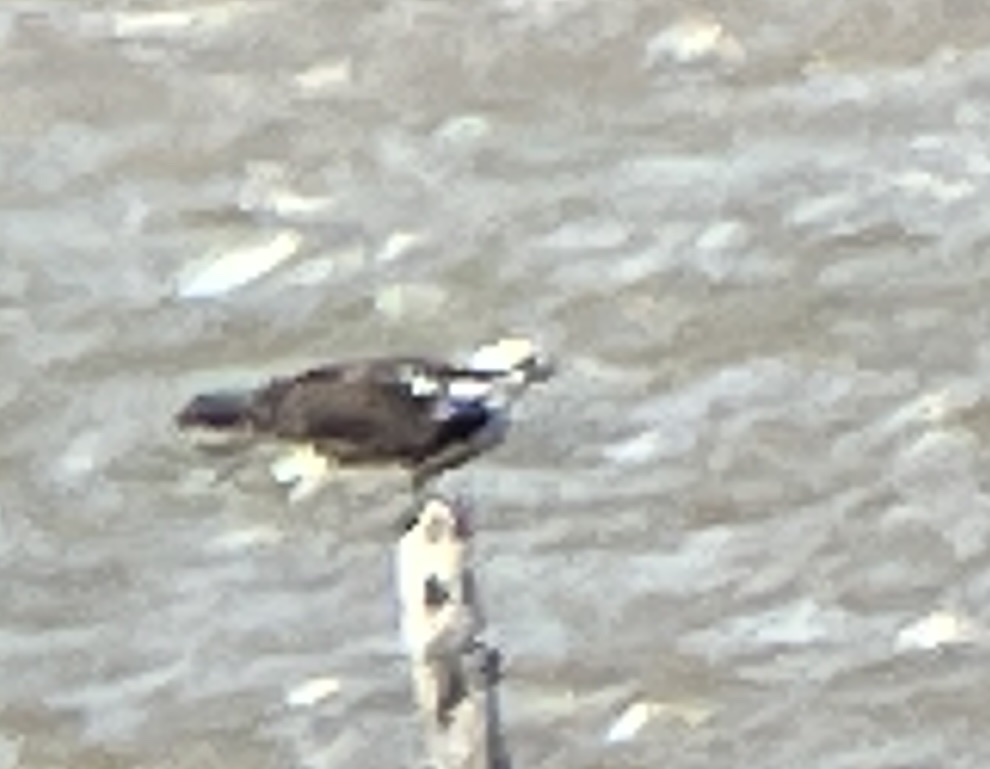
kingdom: Animalia
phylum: Chordata
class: Aves
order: Accipitriformes
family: Pandionidae
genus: Pandion
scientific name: Pandion haliaetus
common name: Osprey
